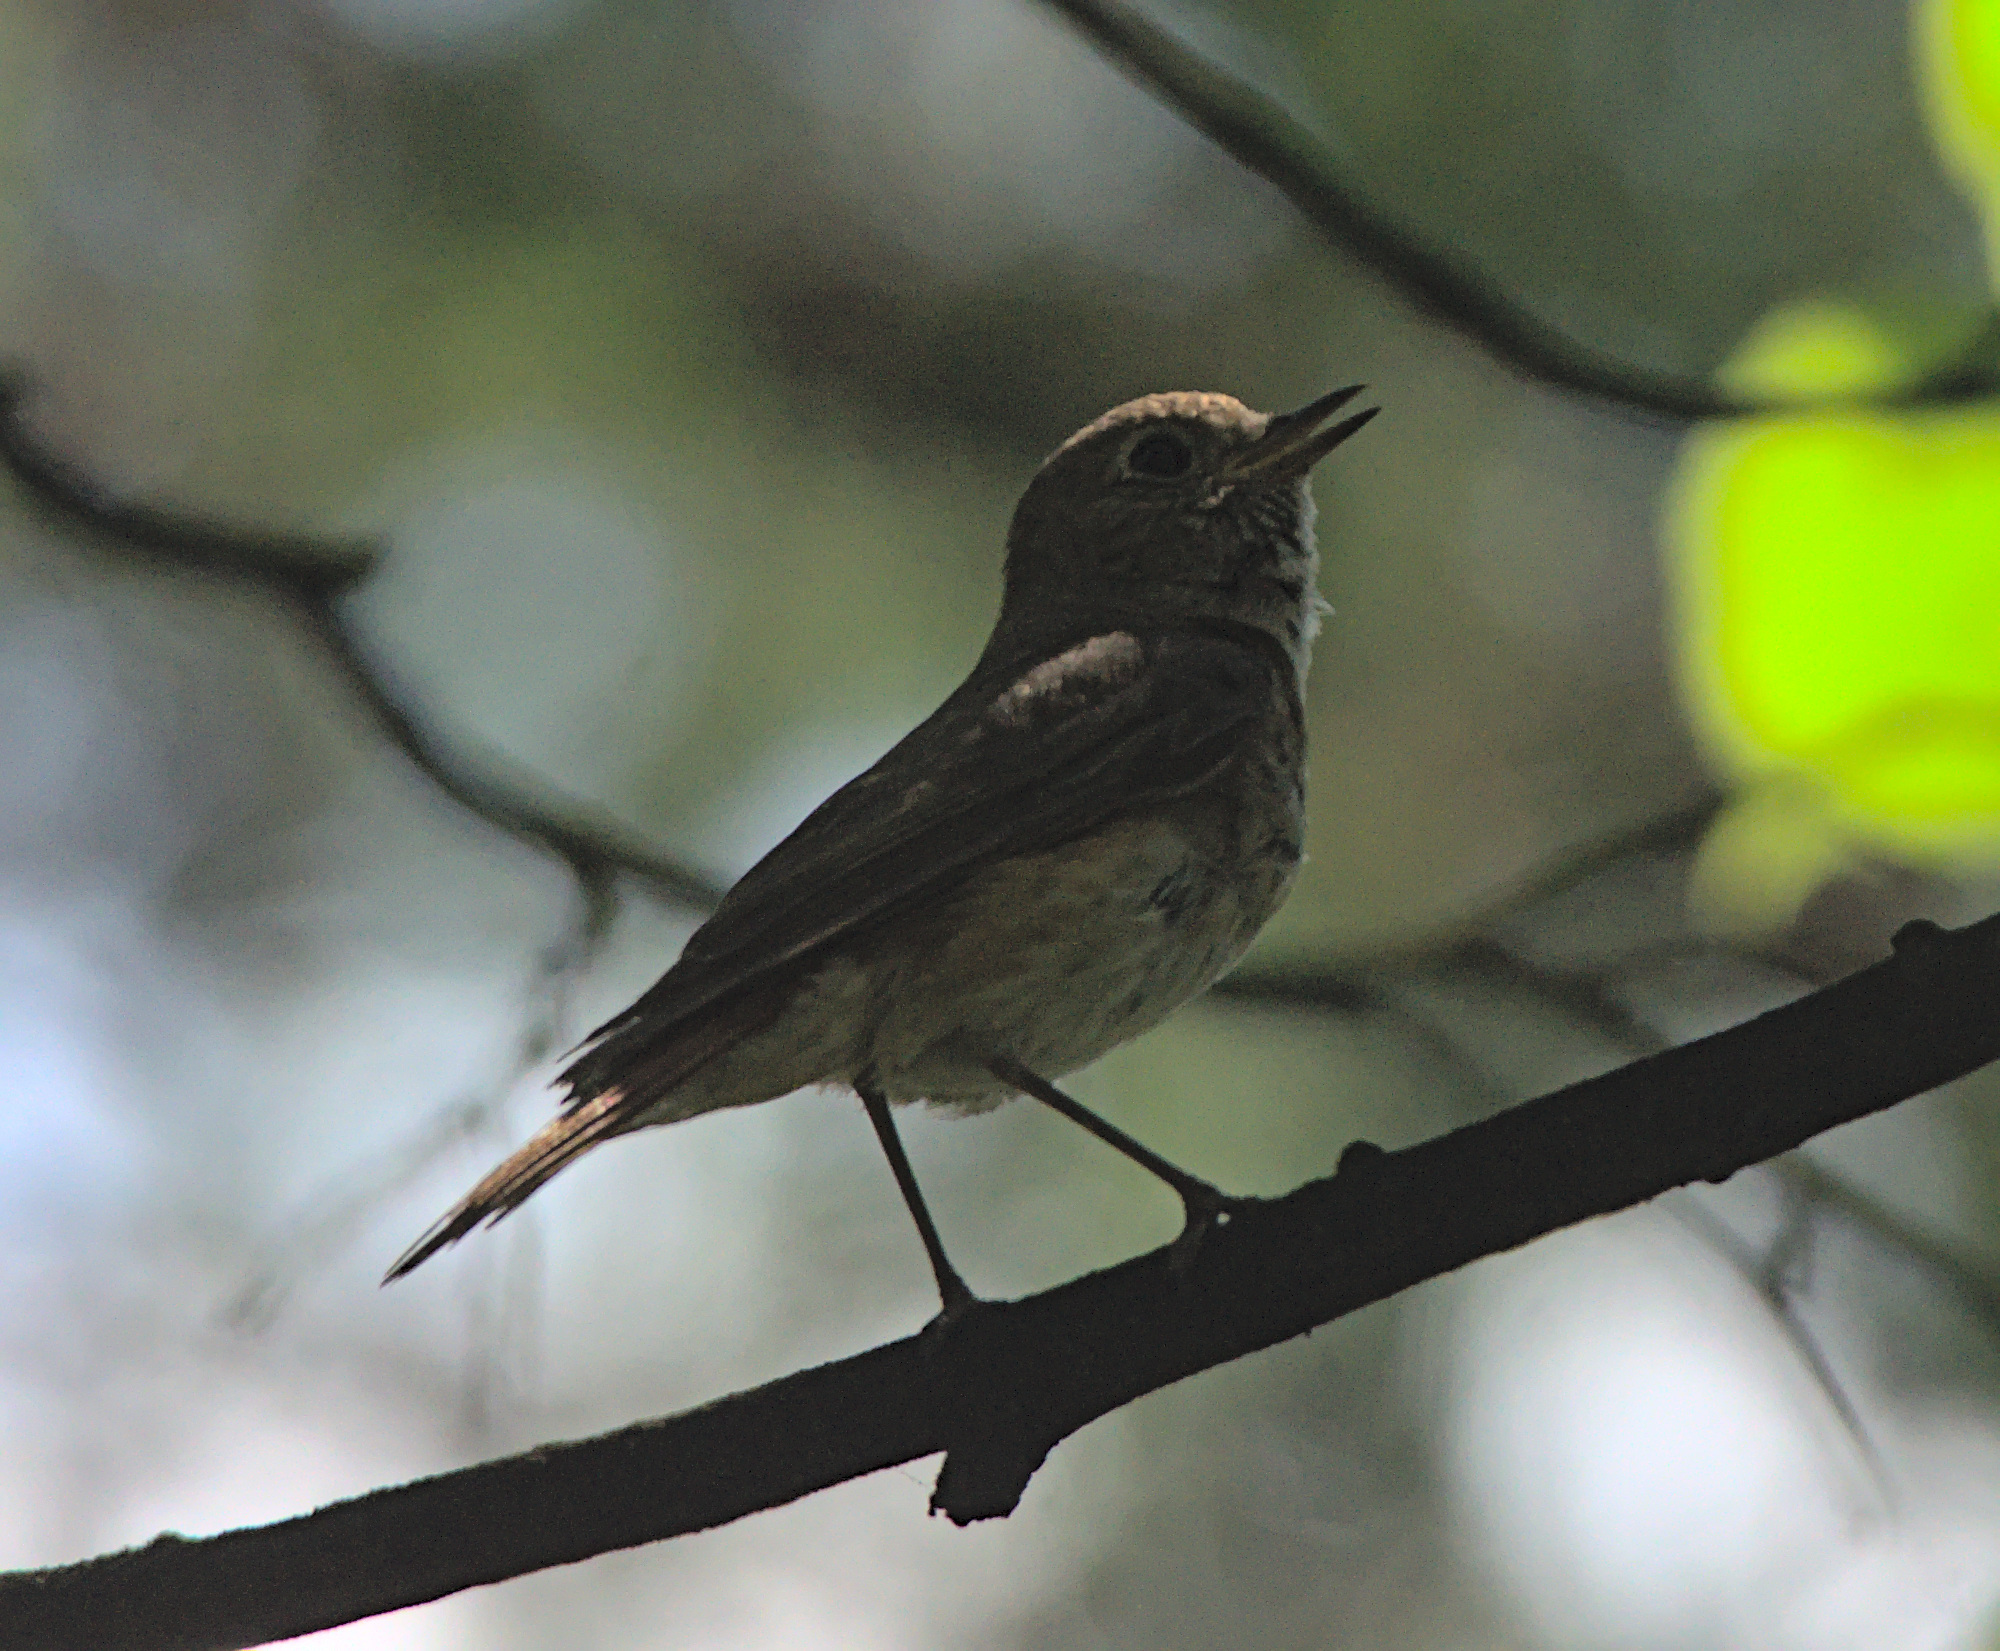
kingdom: Animalia
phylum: Chordata
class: Aves
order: Passeriformes
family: Muscicapidae
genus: Phoenicurus
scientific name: Phoenicurus phoenicurus
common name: Common redstart
